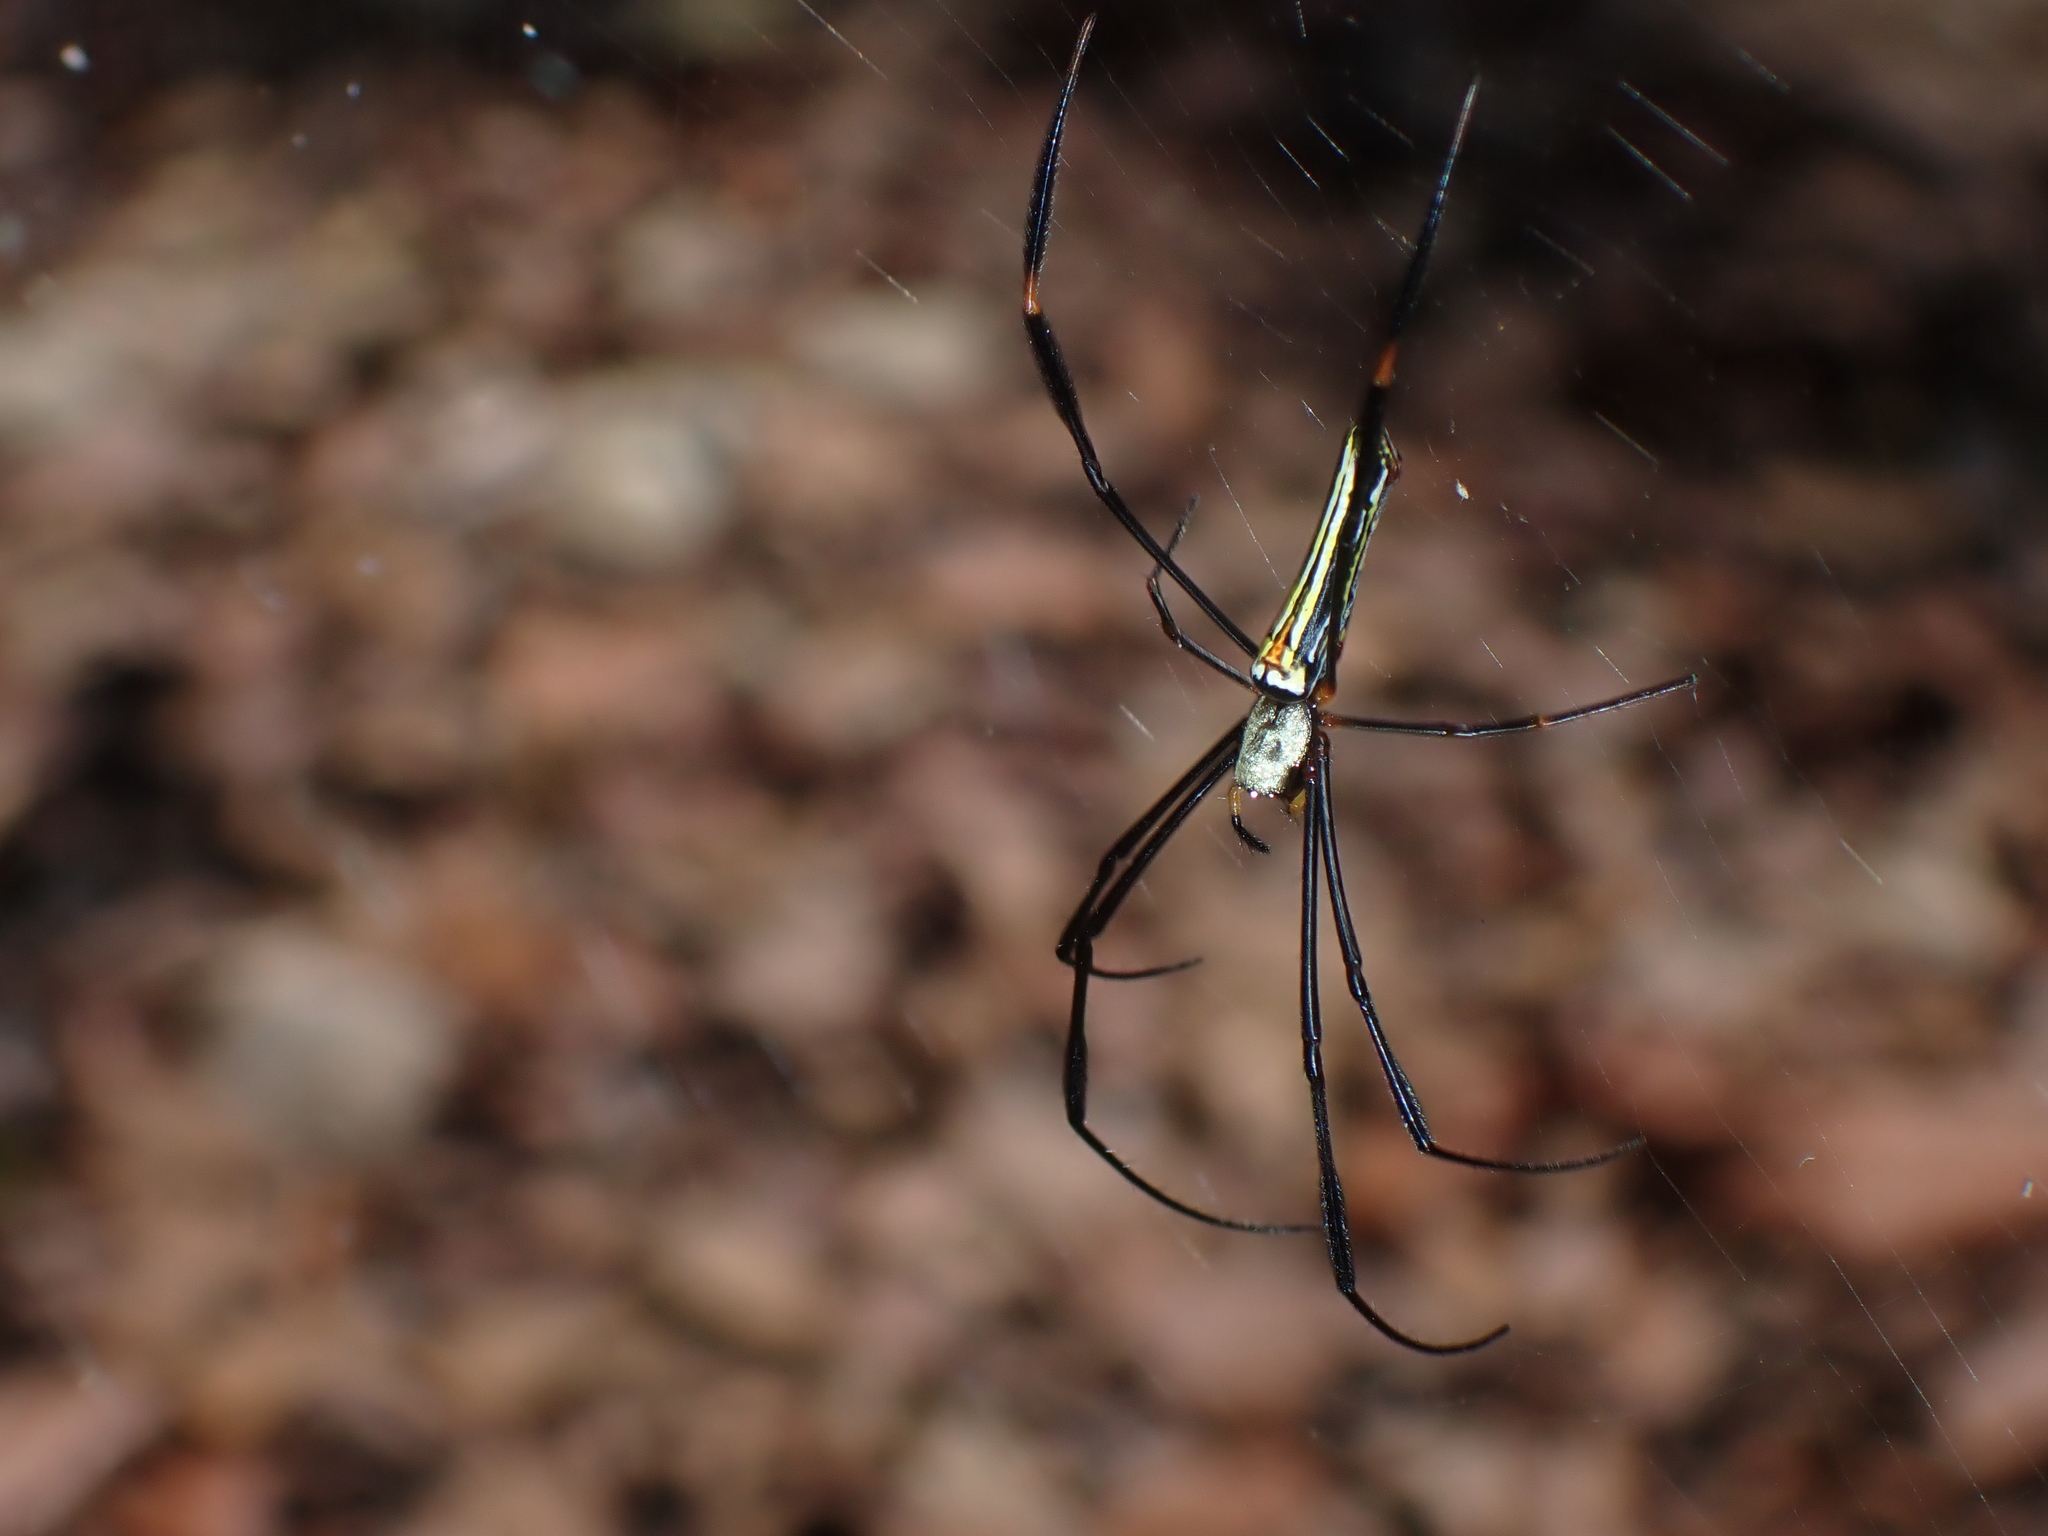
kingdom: Animalia
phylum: Arthropoda
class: Arachnida
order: Araneae
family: Araneidae
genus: Nephila
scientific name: Nephila pilipes
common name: Giant golden orb weaver
